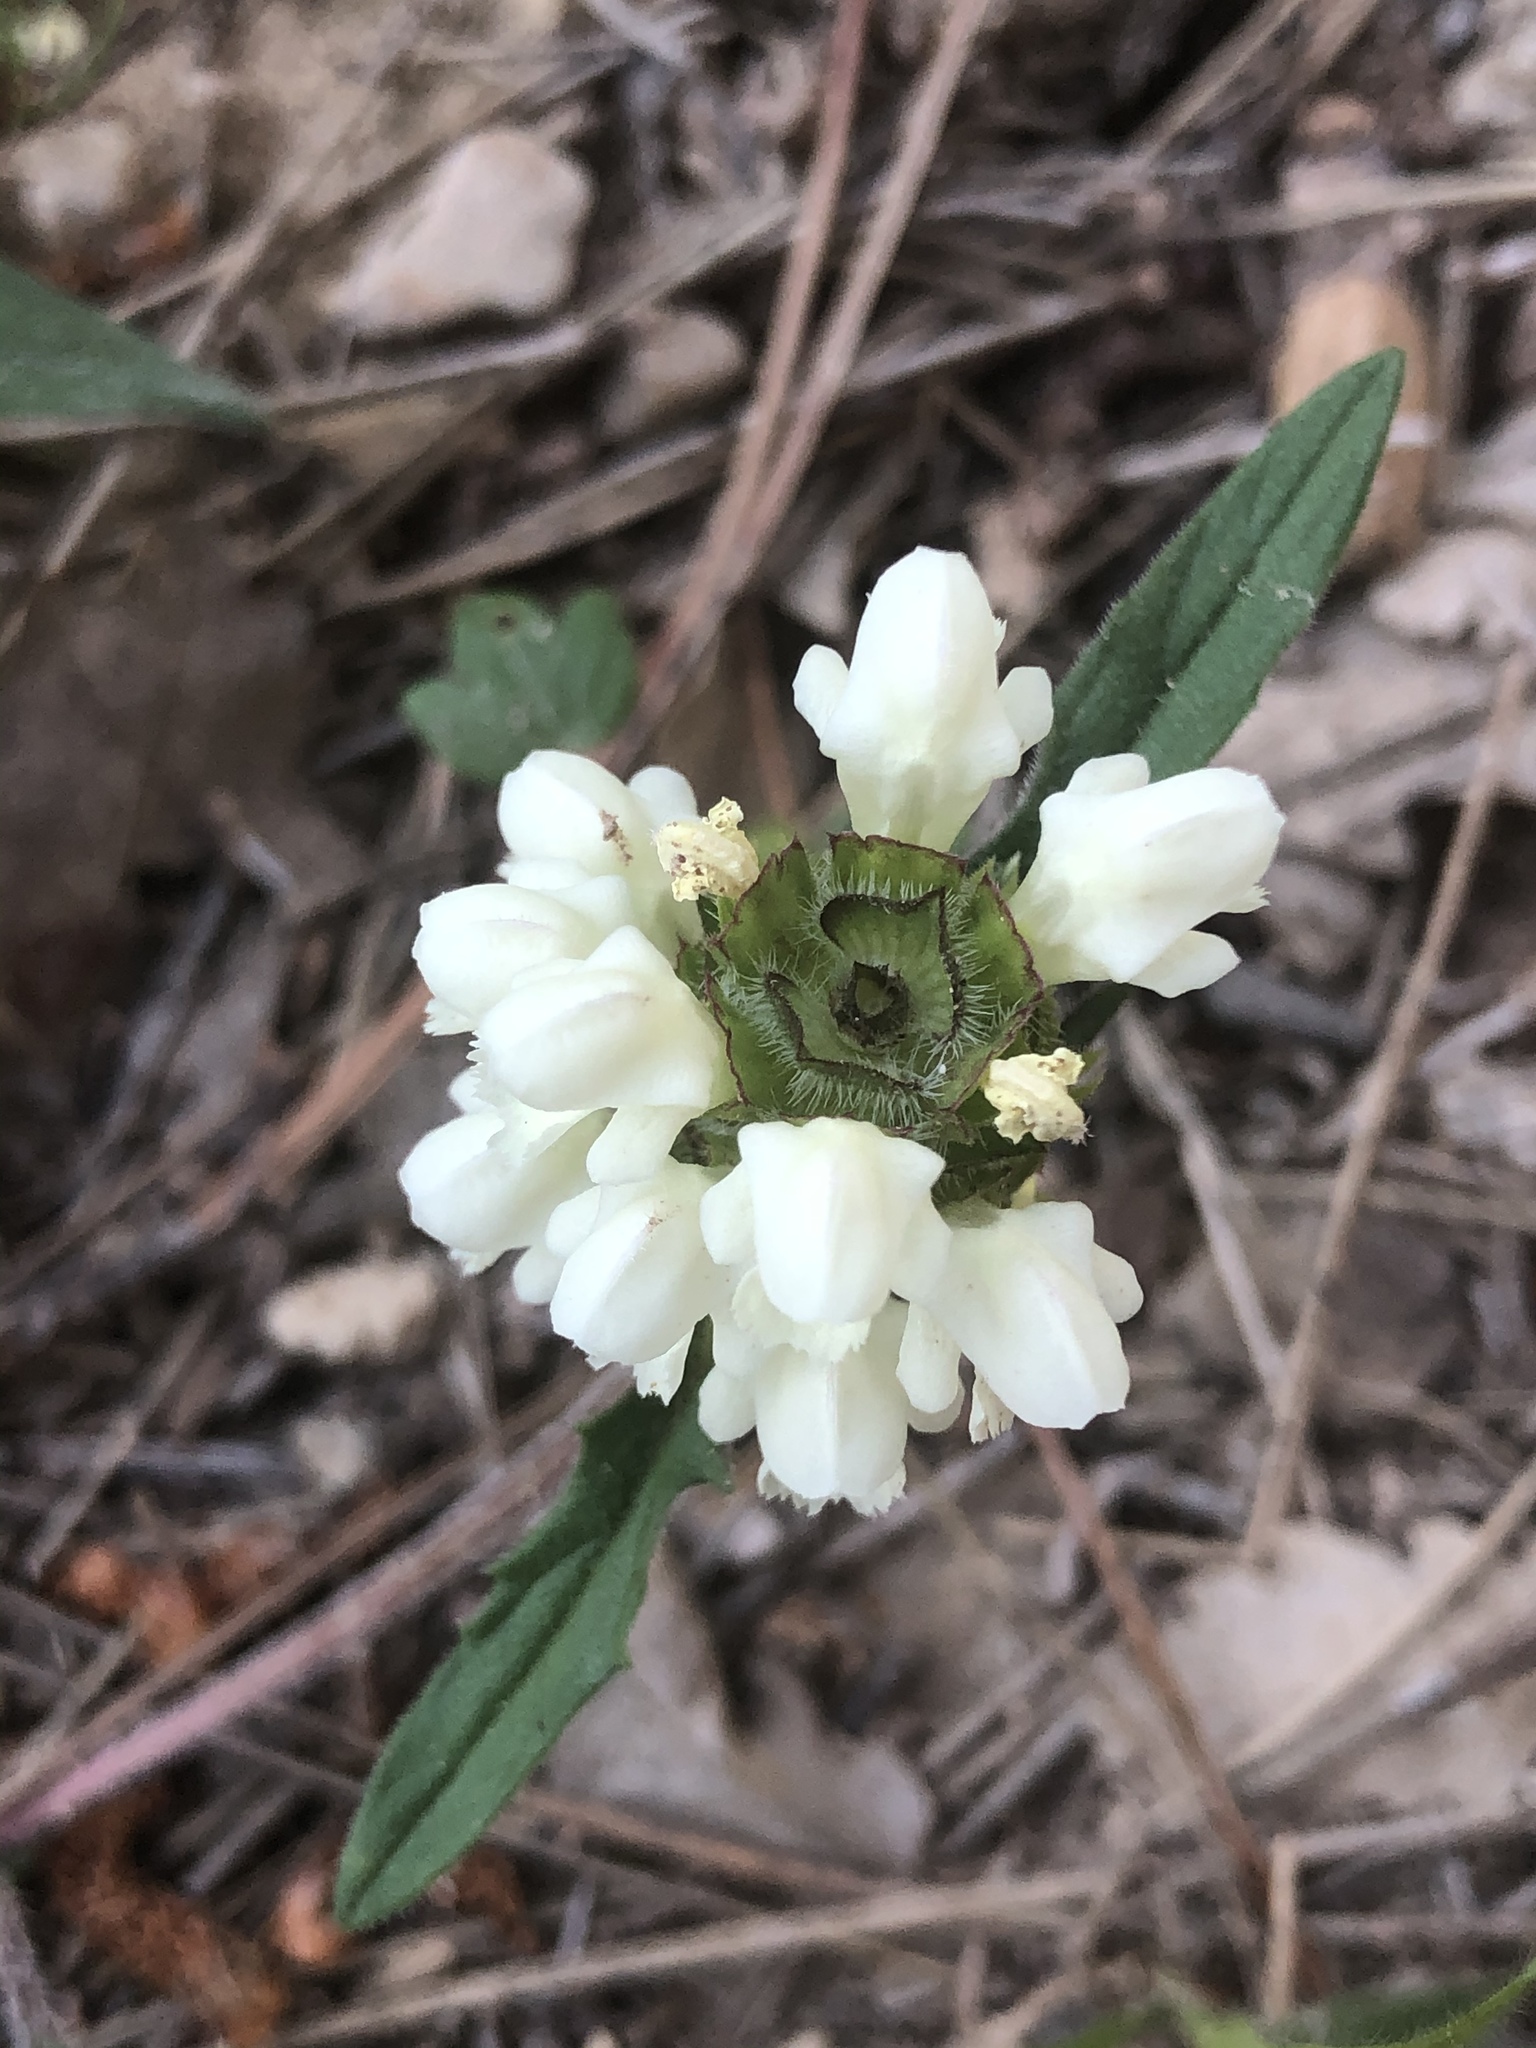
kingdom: Plantae
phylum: Tracheophyta
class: Magnoliopsida
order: Lamiales
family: Lamiaceae
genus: Prunella
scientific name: Prunella laciniata
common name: Cut-leaved selfheal
